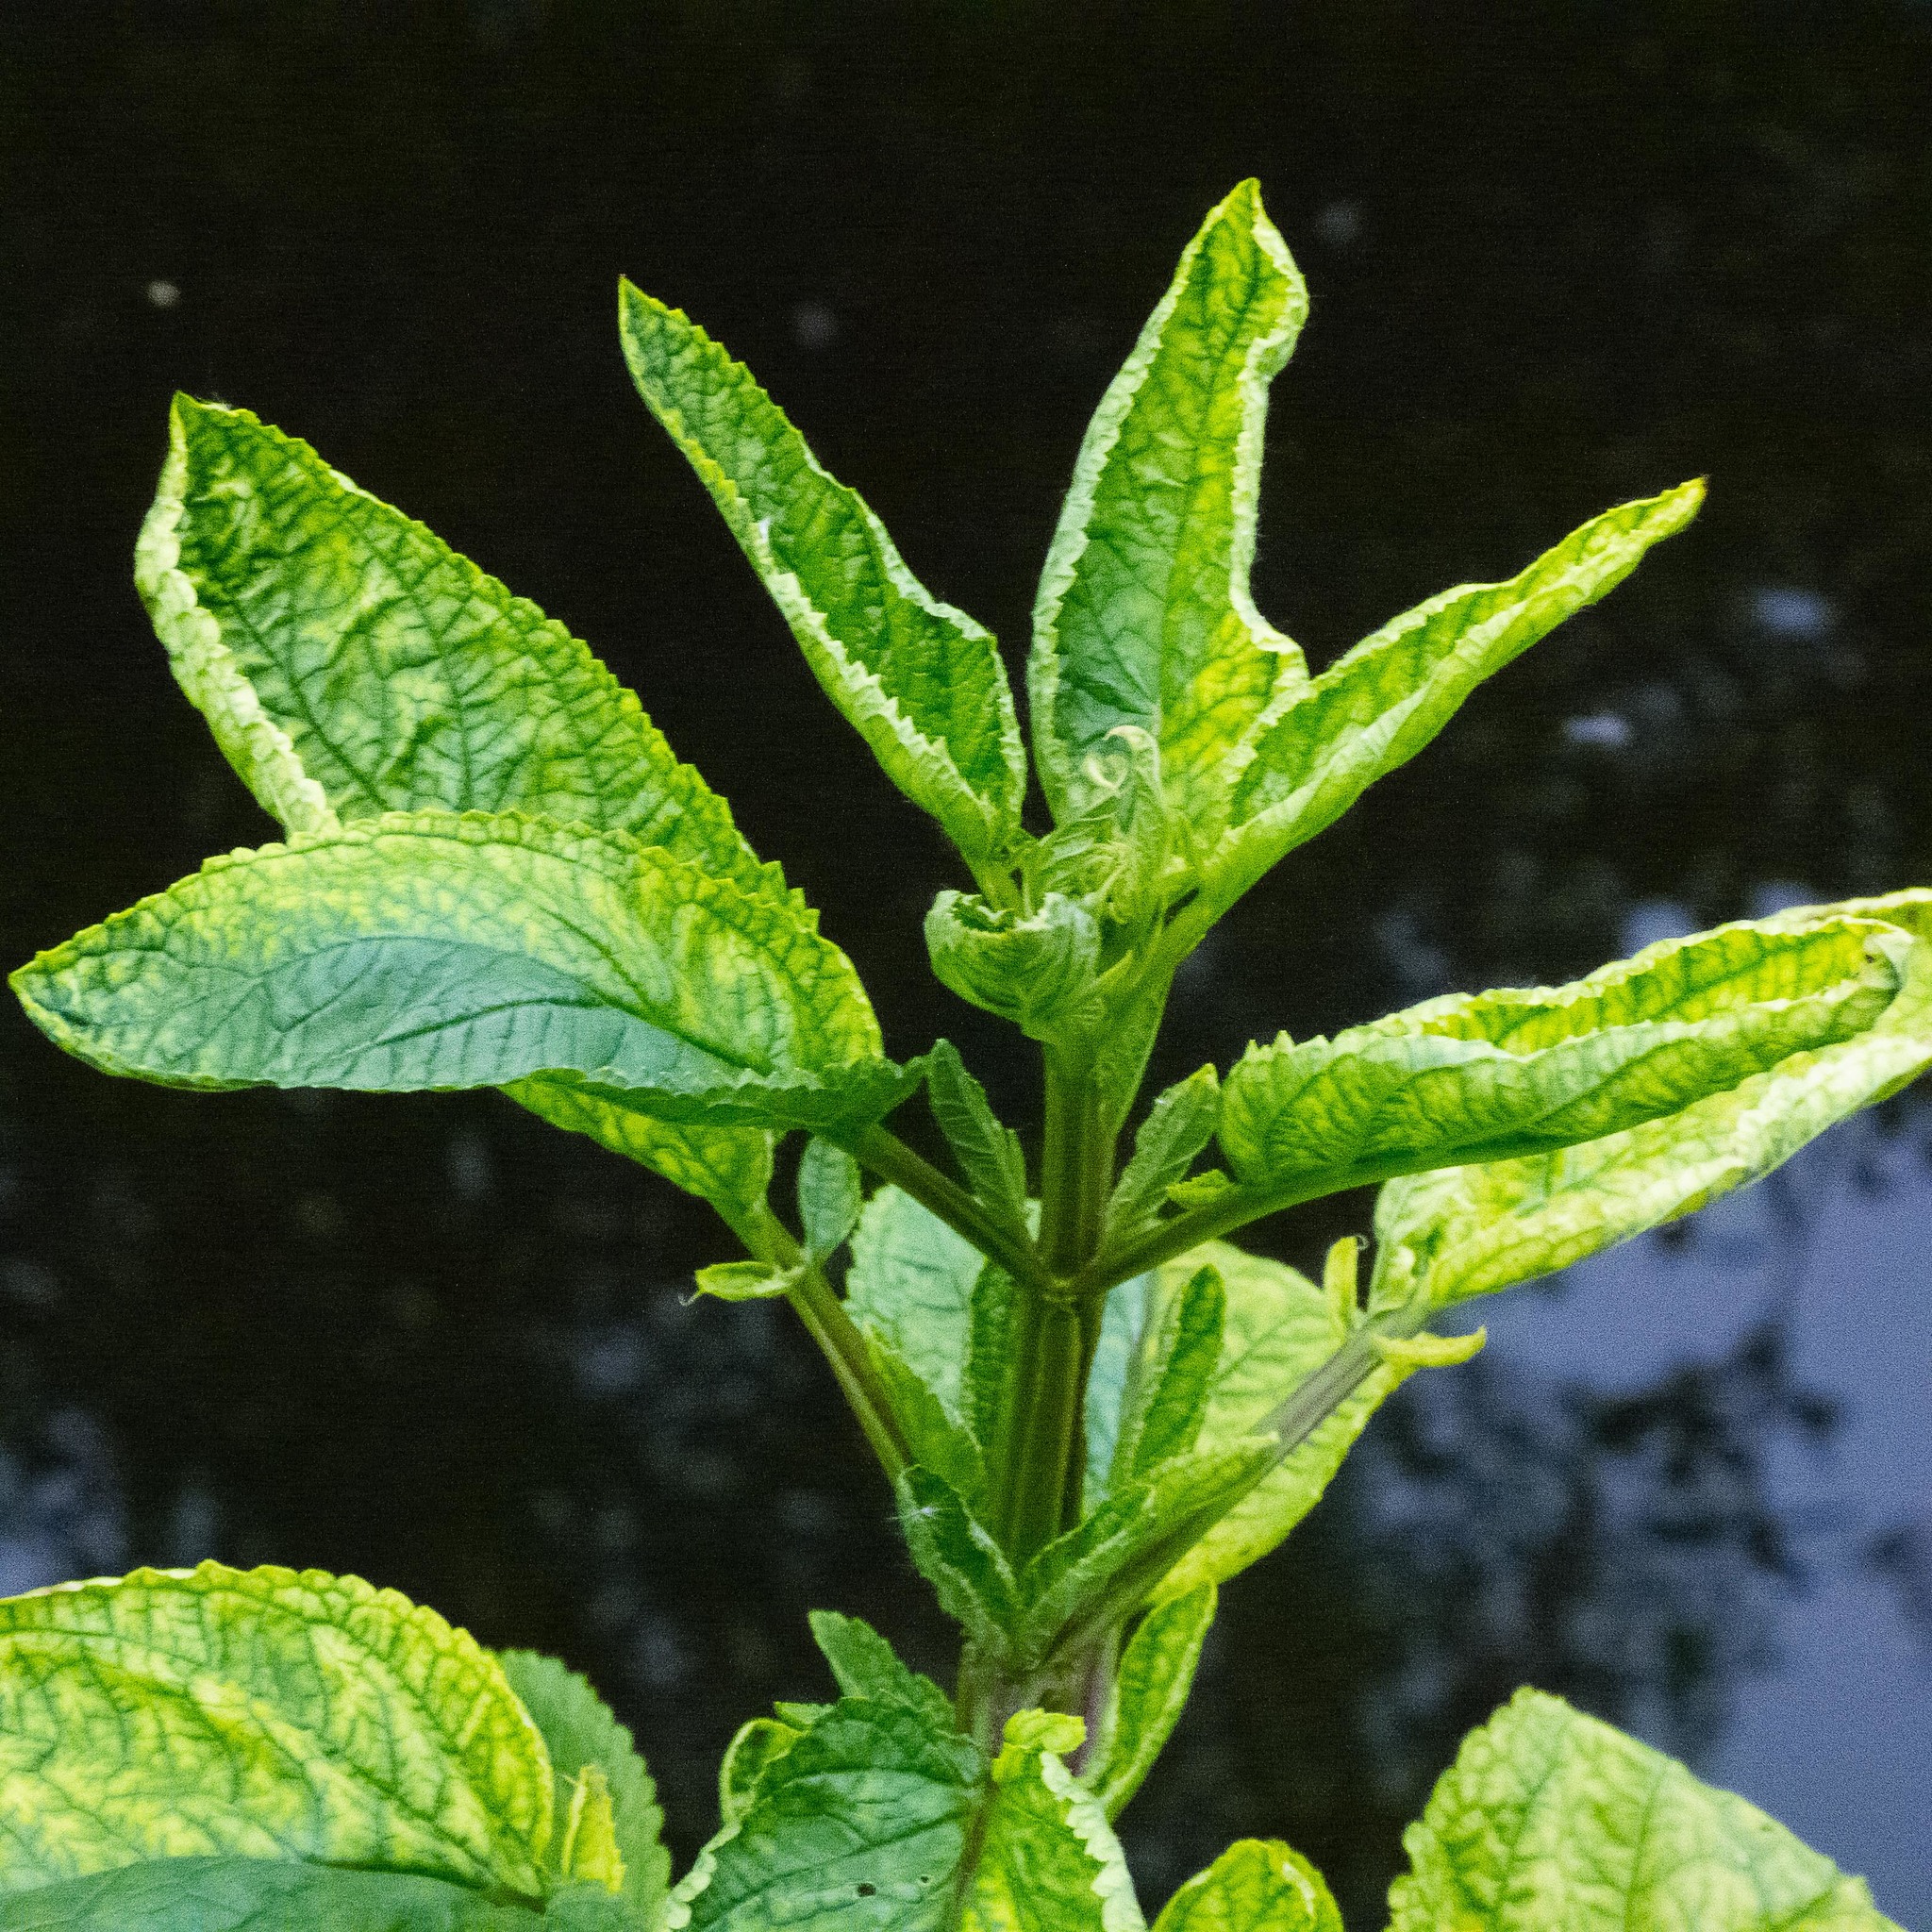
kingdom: Plantae
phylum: Tracheophyta
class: Magnoliopsida
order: Lamiales
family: Scrophulariaceae
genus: Scrophularia
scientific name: Scrophularia auriculata
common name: Water betony
